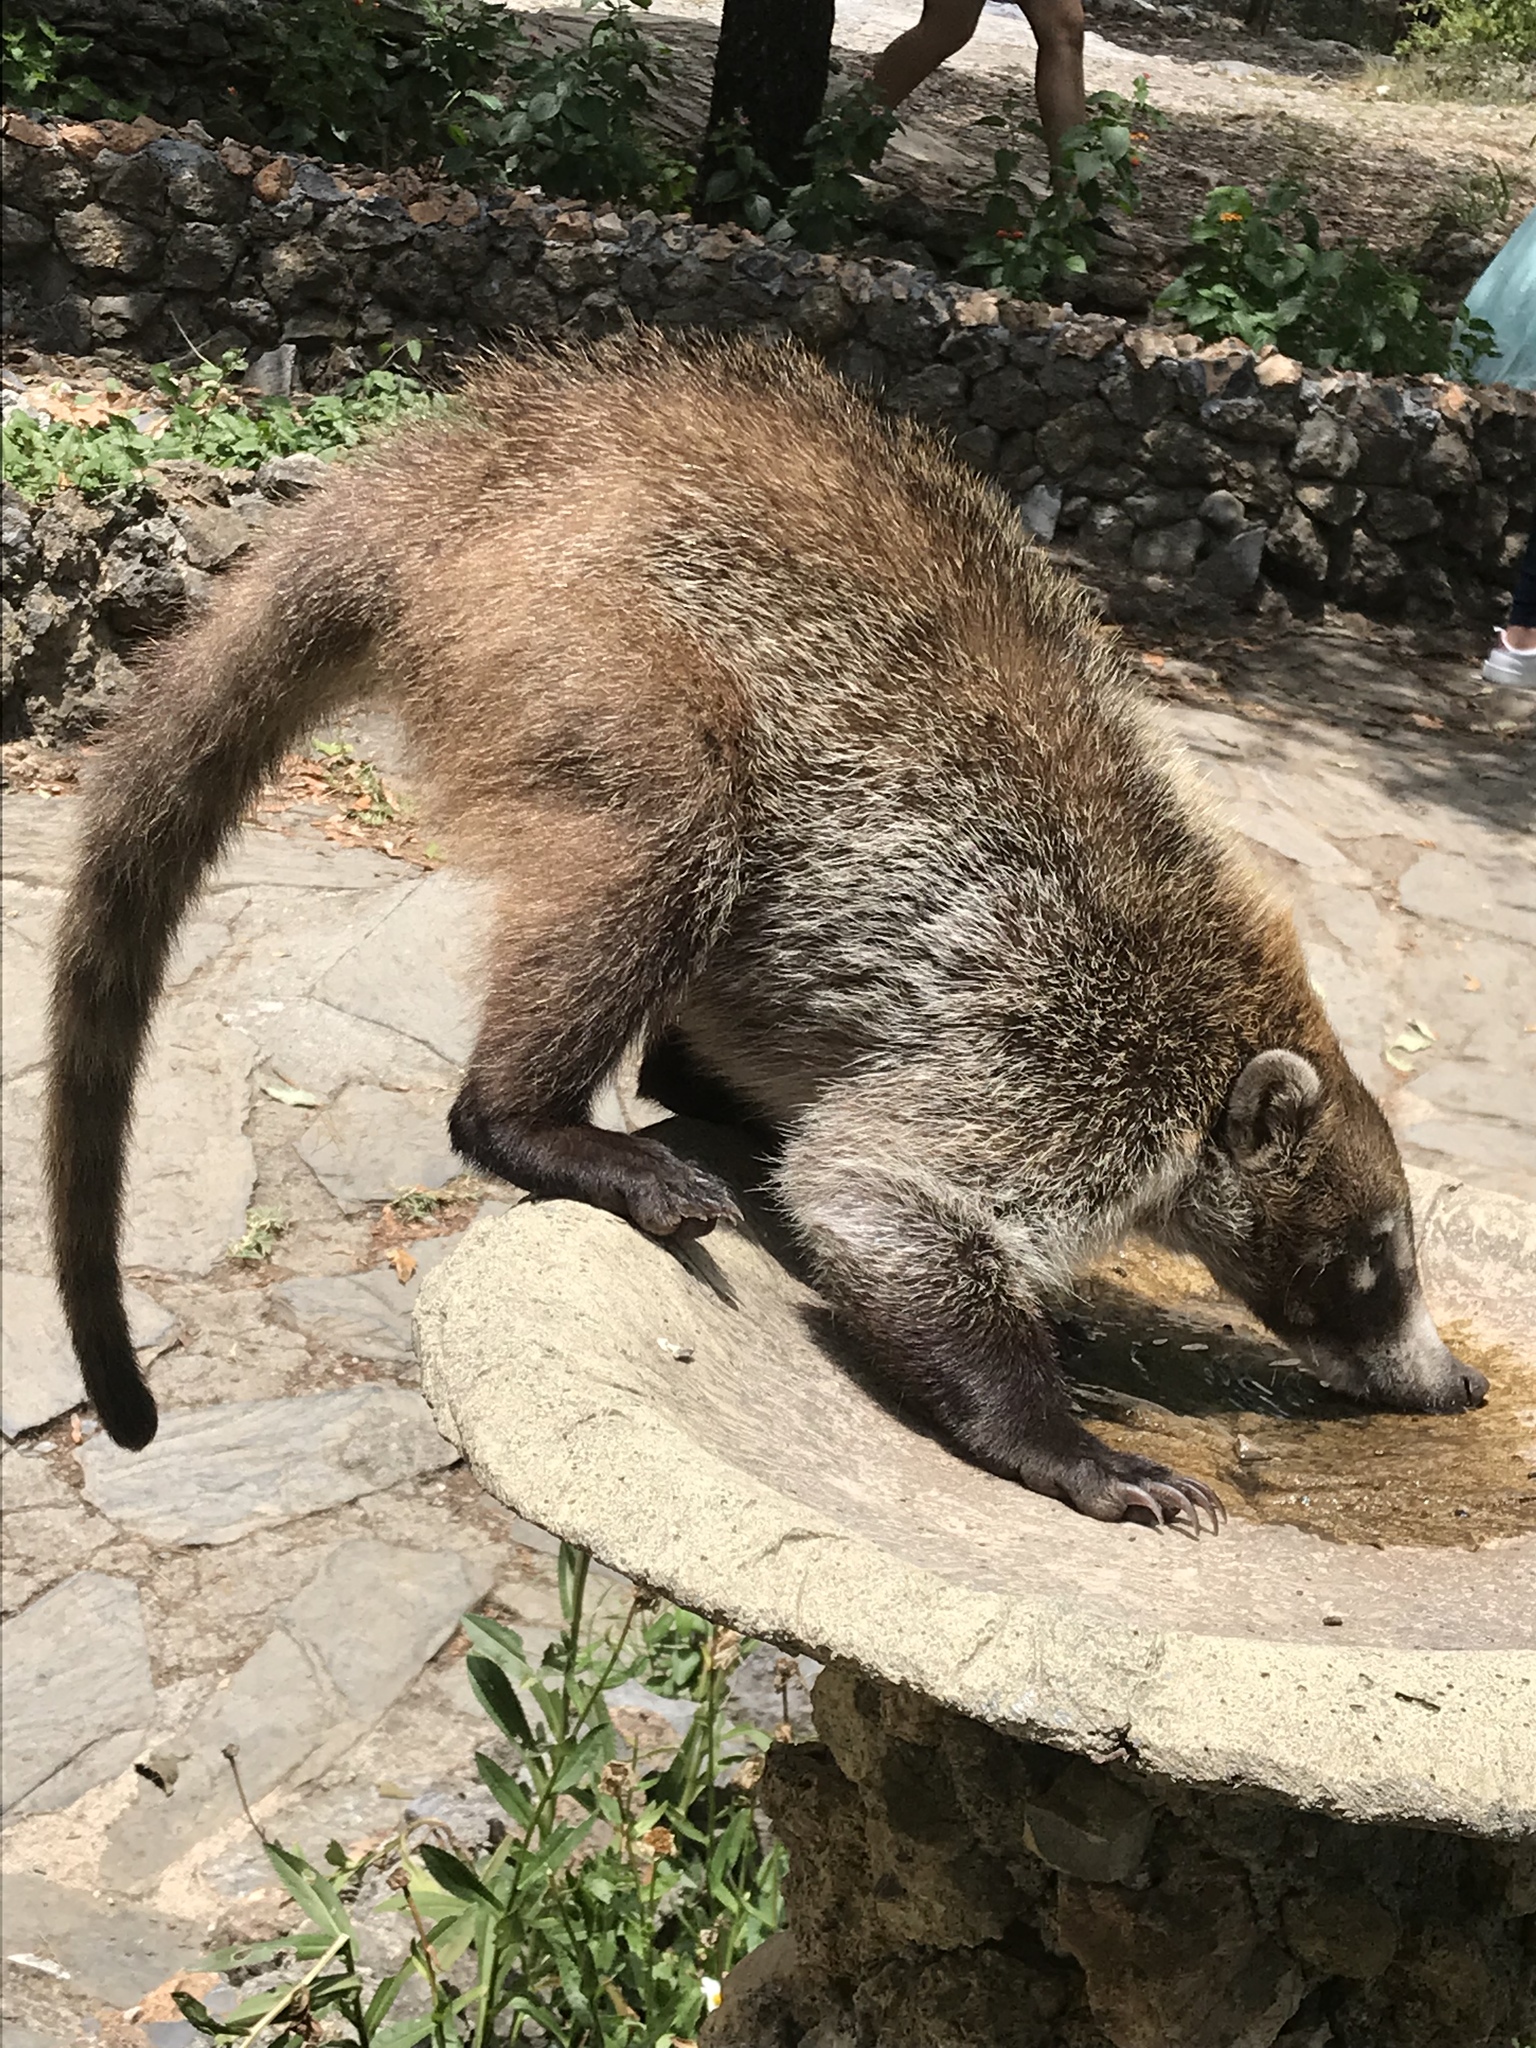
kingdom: Animalia
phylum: Chordata
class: Mammalia
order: Carnivora
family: Procyonidae
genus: Nasua
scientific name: Nasua narica
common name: White-nosed coati
